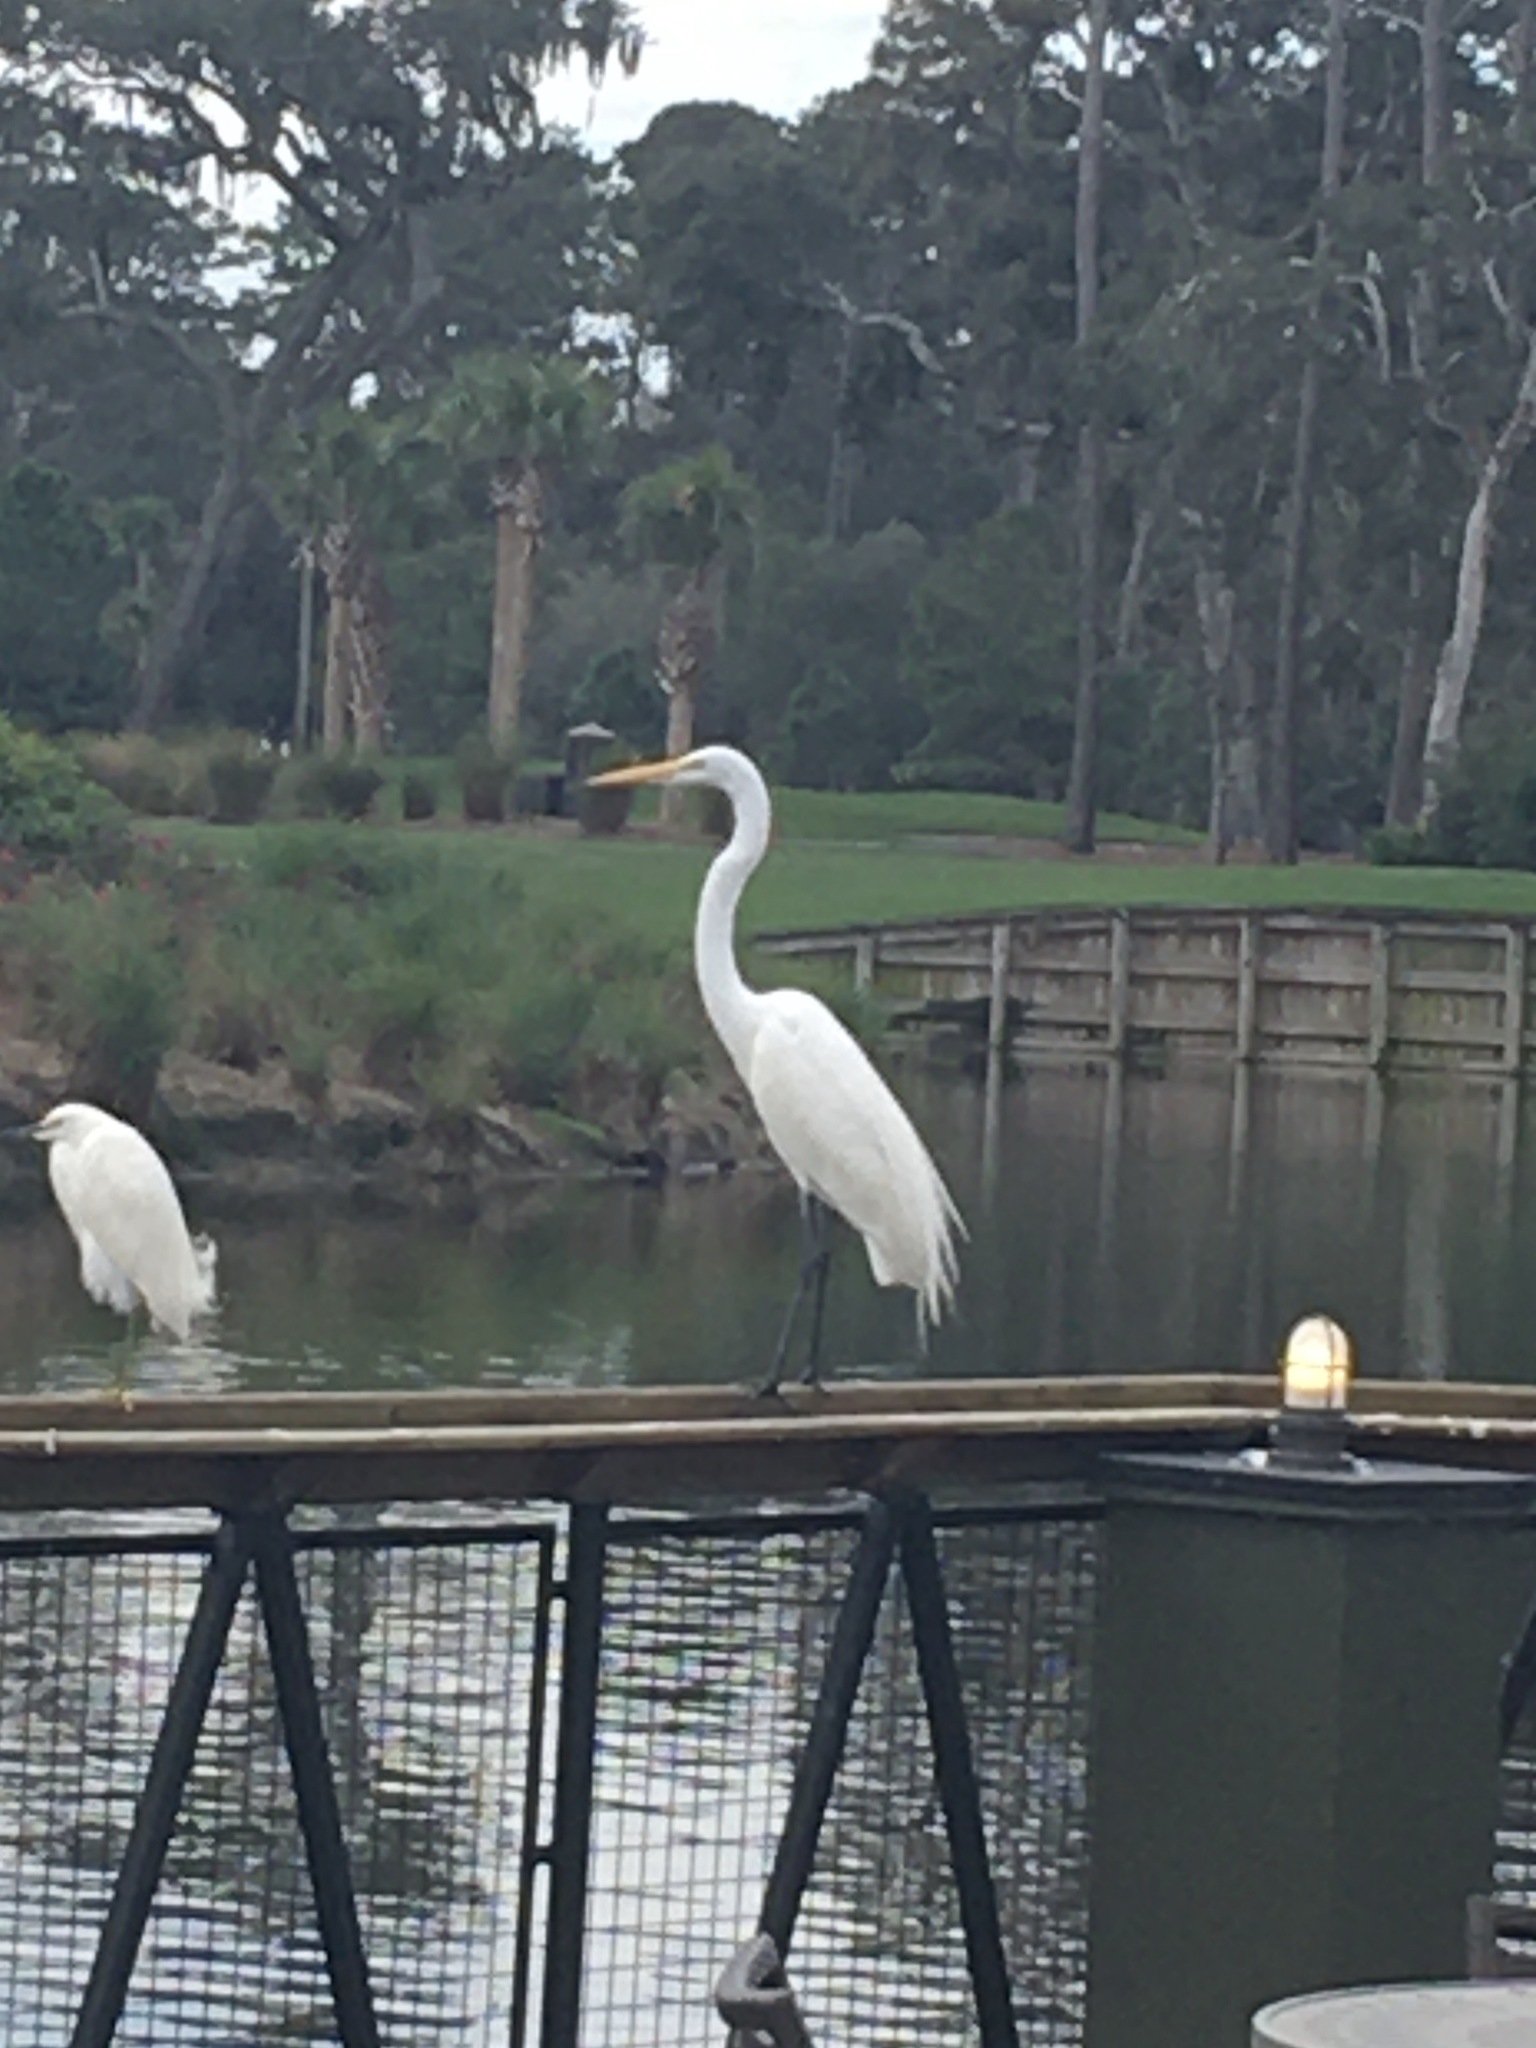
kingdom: Animalia
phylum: Chordata
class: Aves
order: Pelecaniformes
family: Ardeidae
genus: Ardea
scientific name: Ardea alba
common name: Great egret
